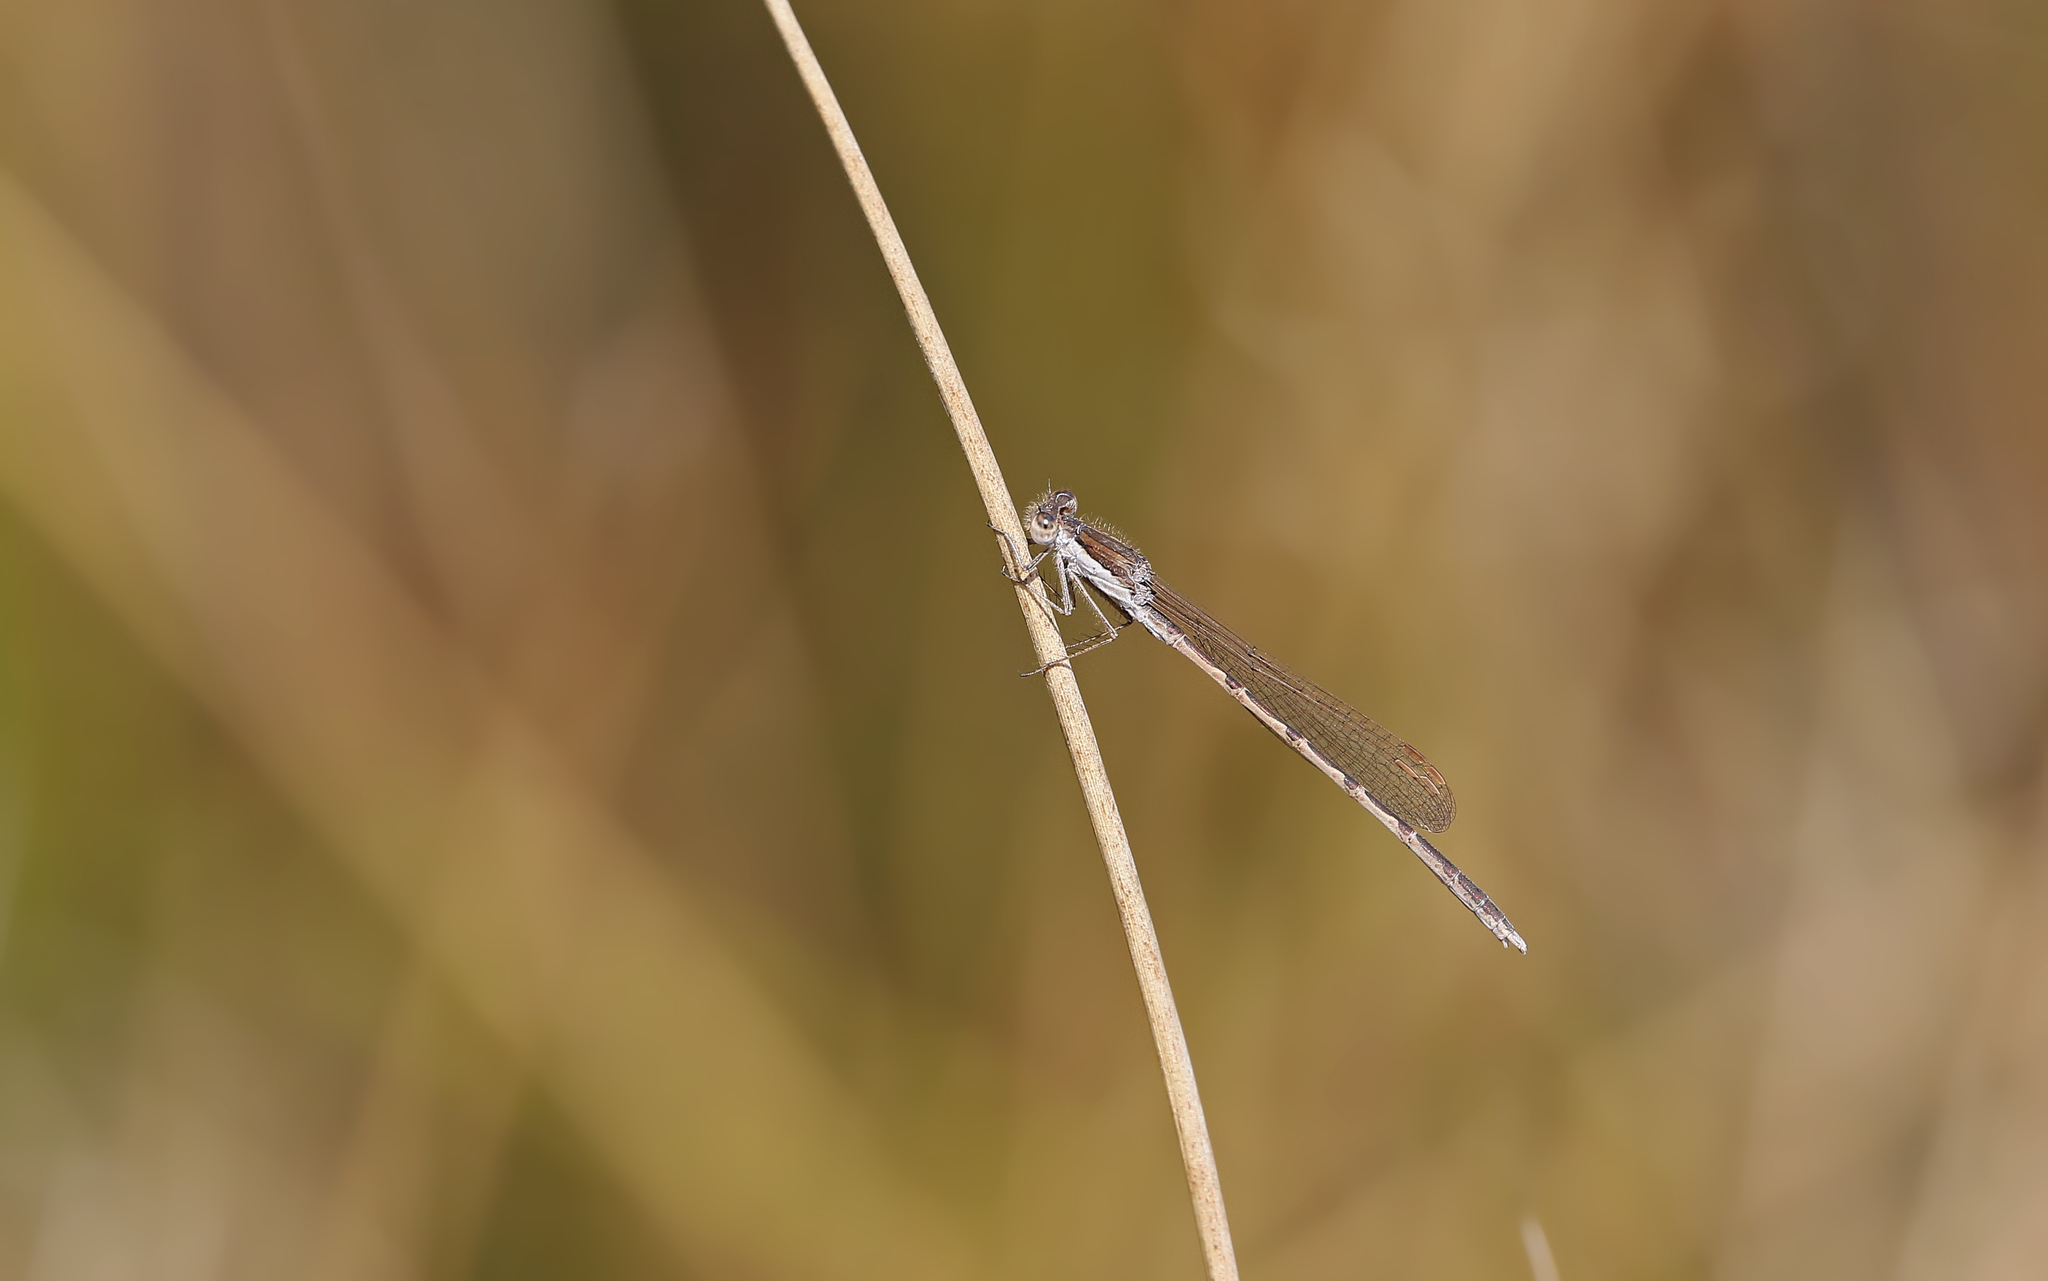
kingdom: Animalia
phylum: Arthropoda
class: Insecta
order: Odonata
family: Lestidae
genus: Sympecma
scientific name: Sympecma fusca
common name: Common winter damsel
